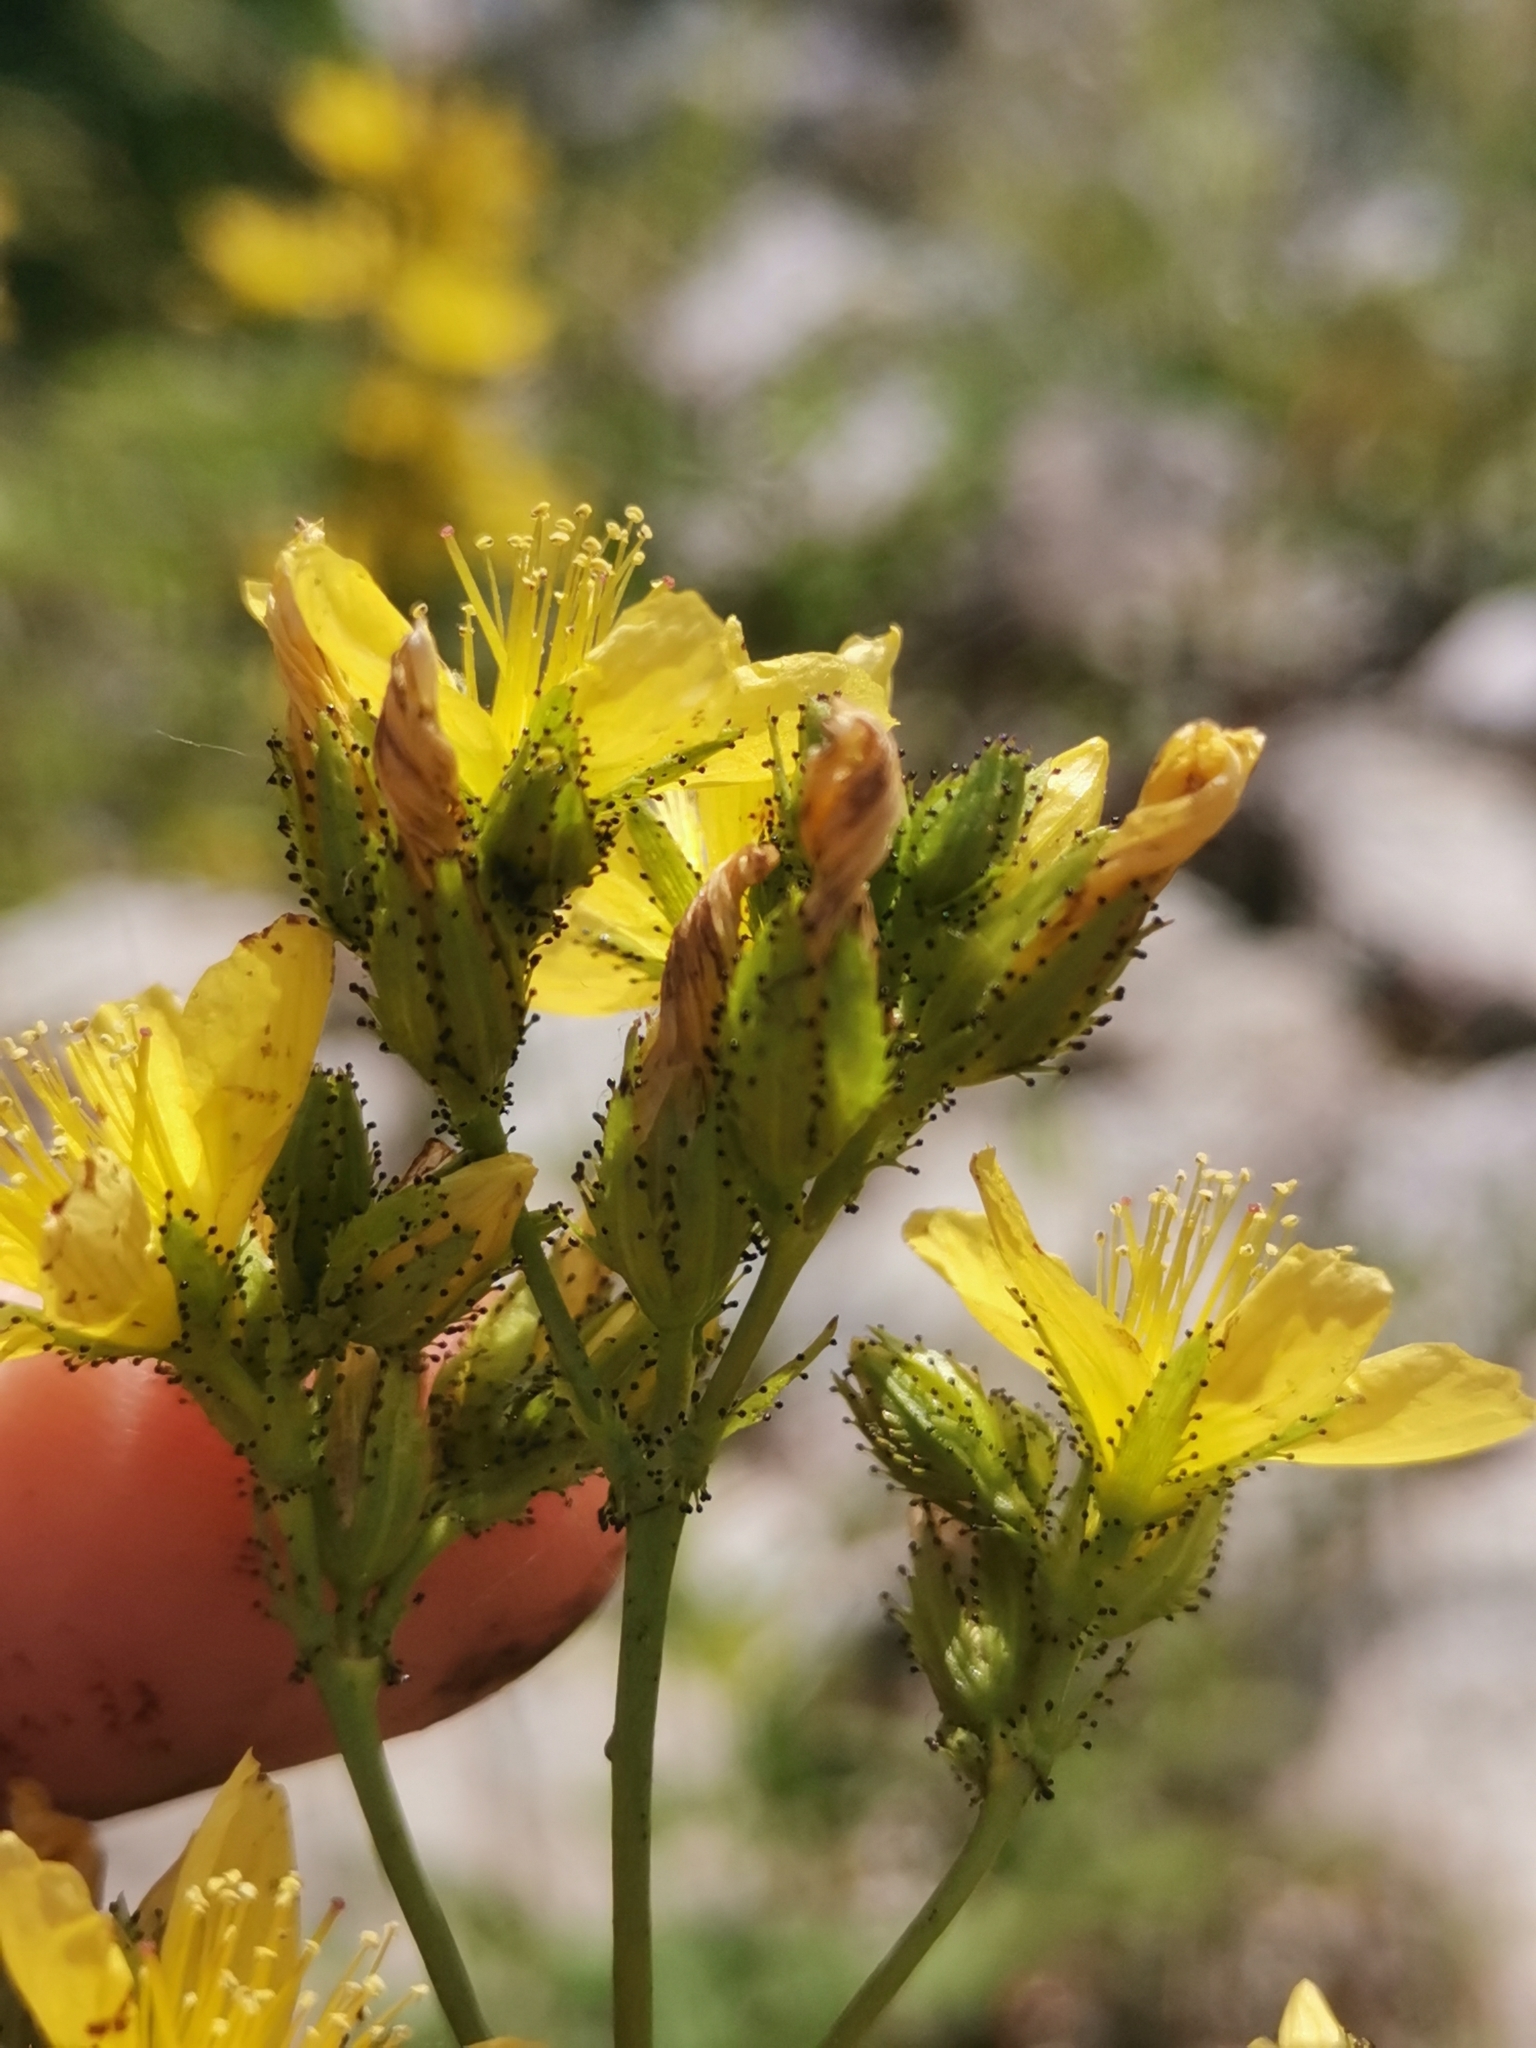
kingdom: Plantae
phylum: Tracheophyta
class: Magnoliopsida
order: Malpighiales
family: Hypericaceae
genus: Hypericum
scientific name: Hypericum montanum
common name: Pale st. john's-wort
